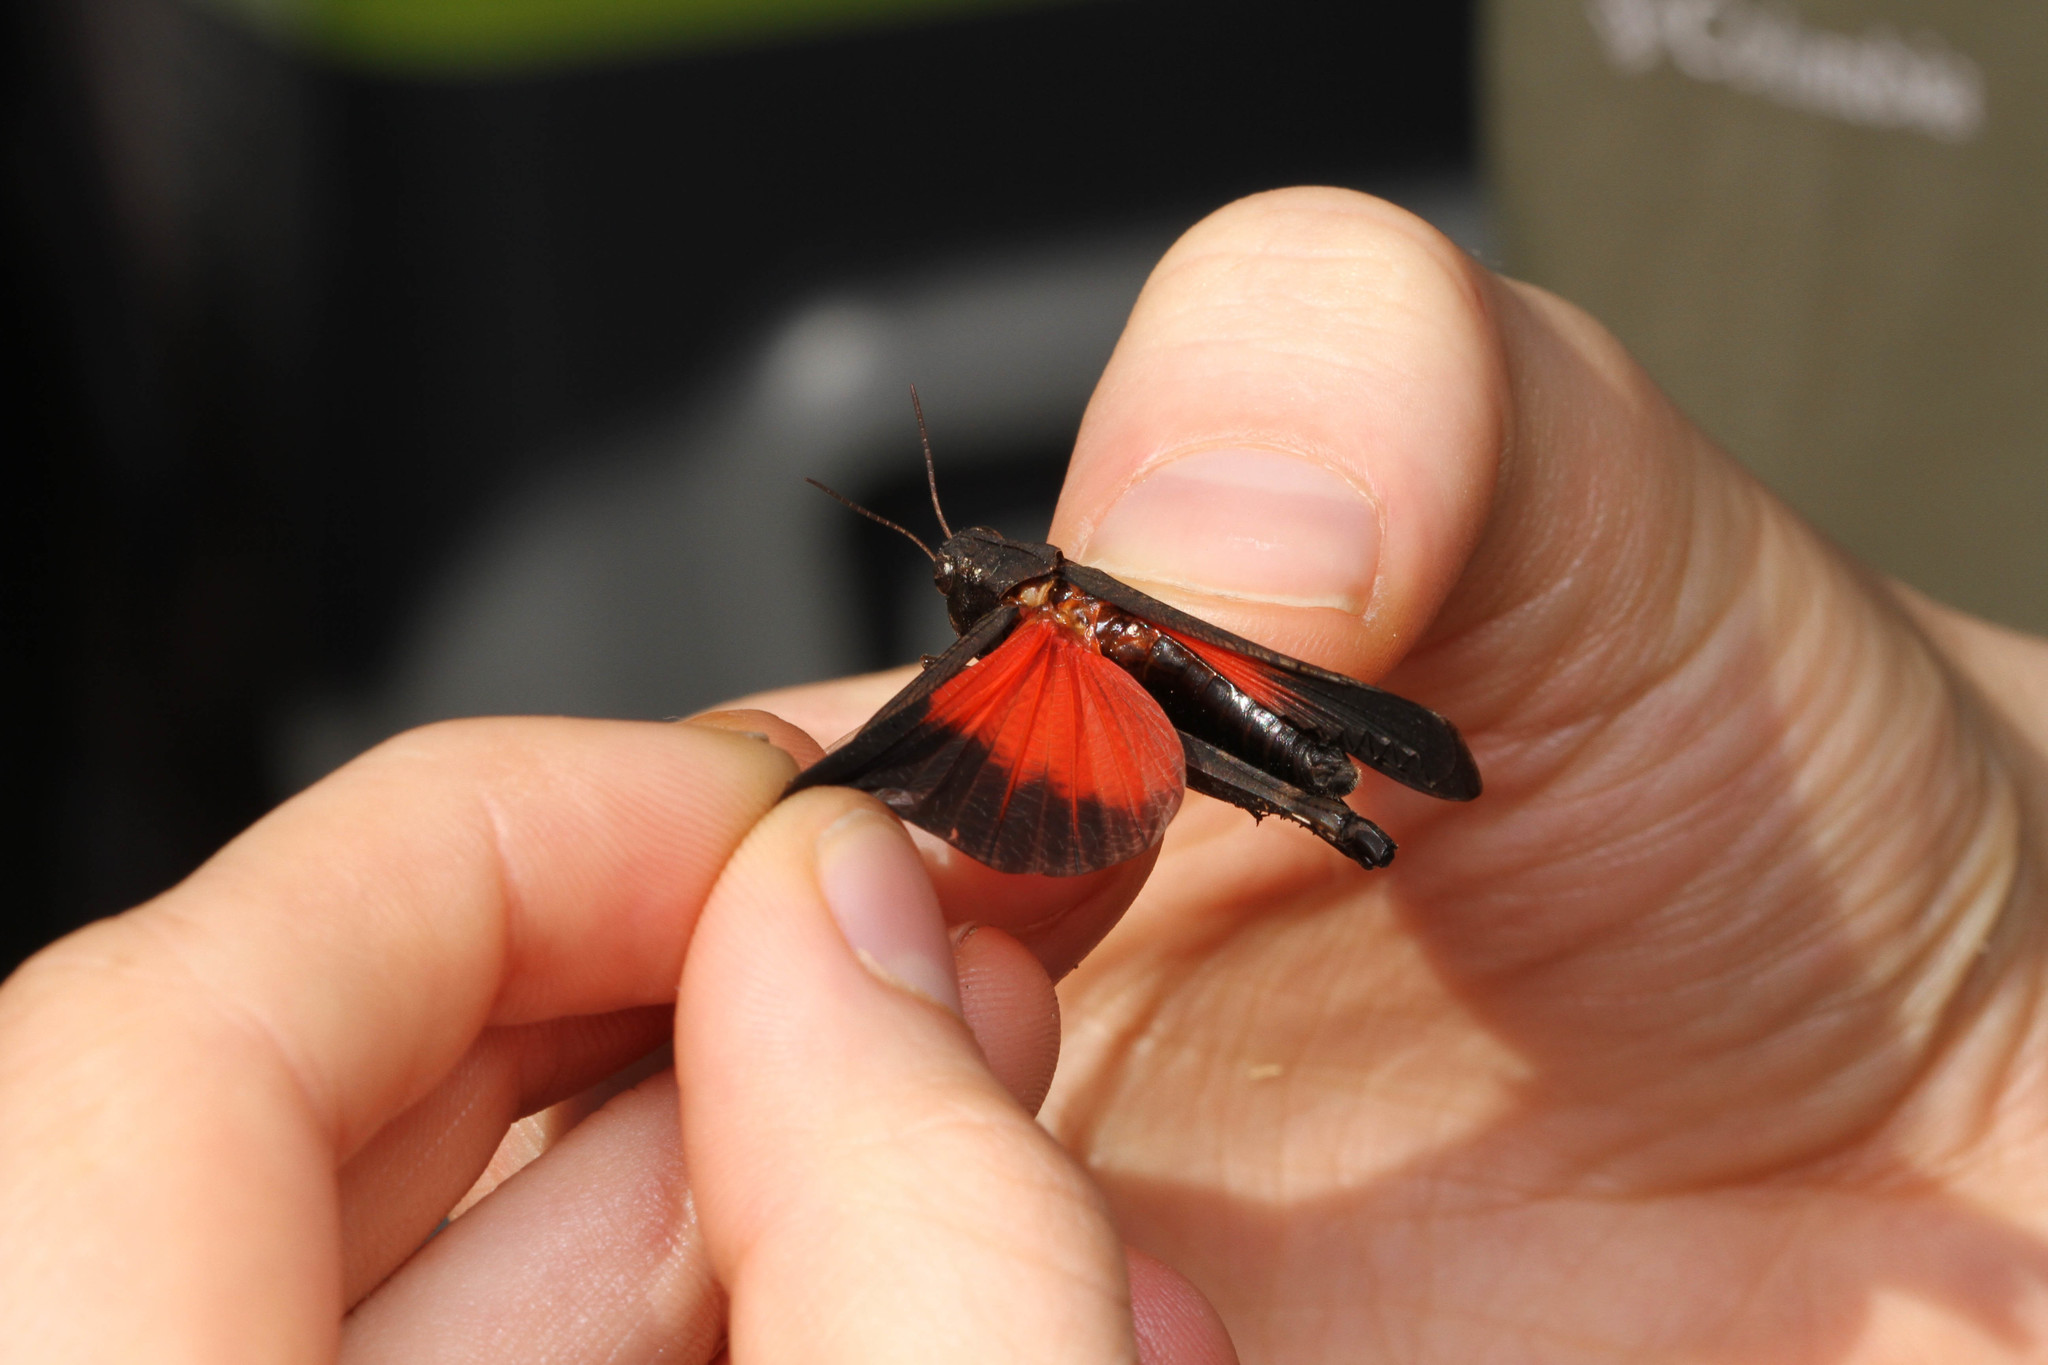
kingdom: Animalia
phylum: Arthropoda
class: Insecta
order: Orthoptera
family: Acrididae
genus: Arphia
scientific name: Arphia pseudo-nietana
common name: Red-winged grasshopper
